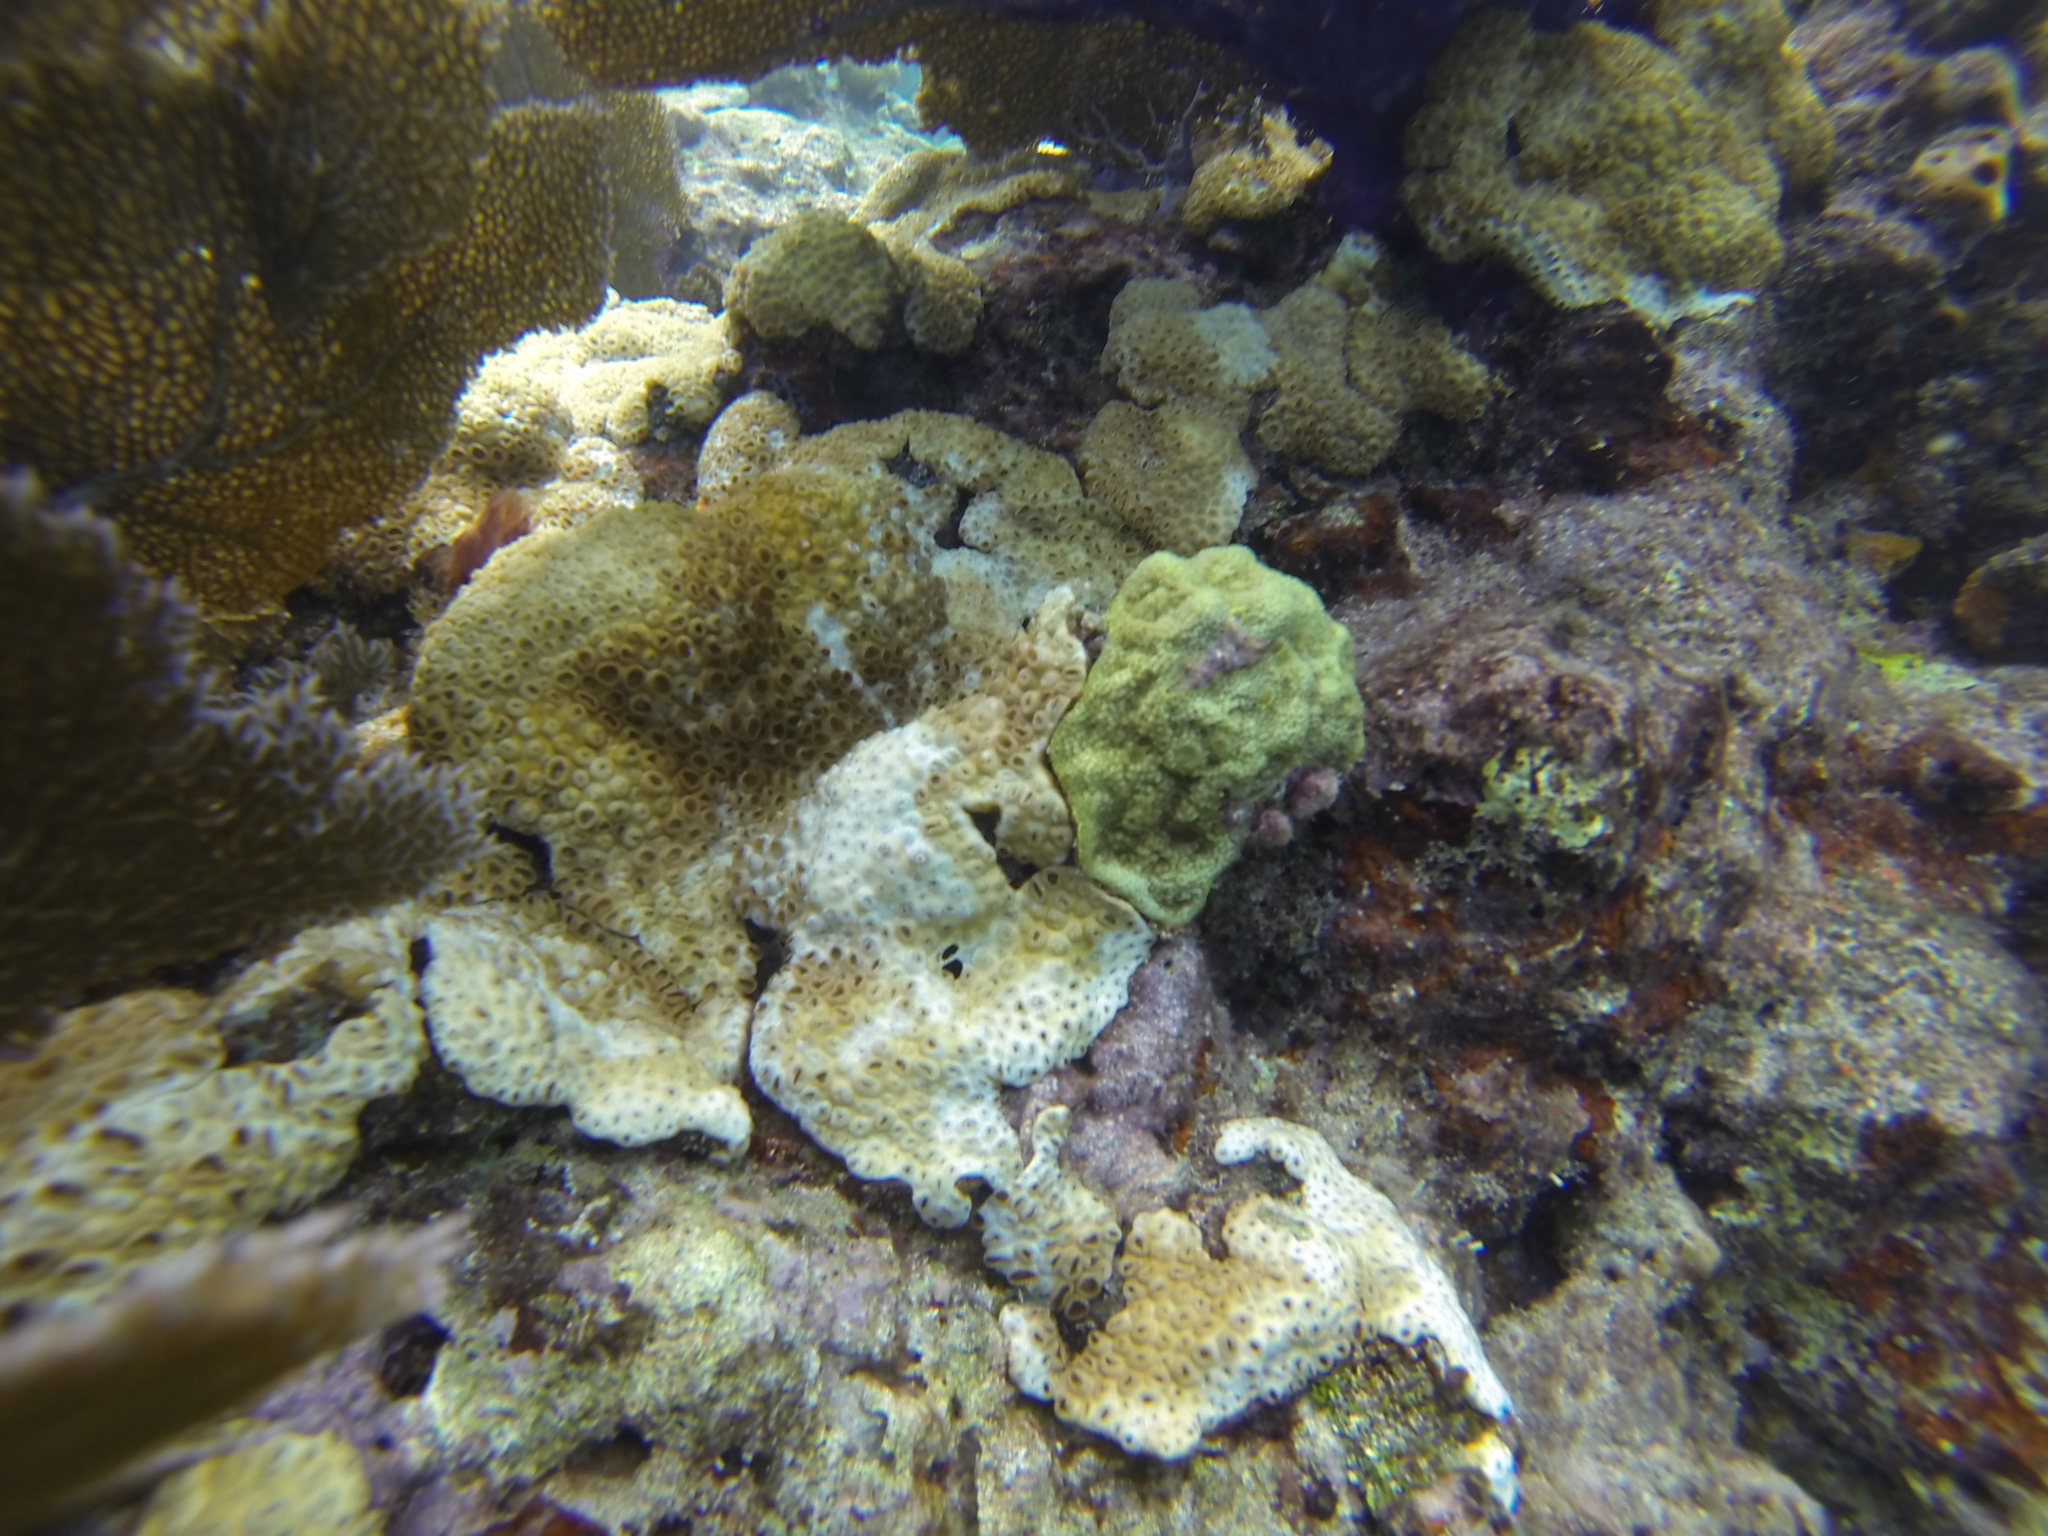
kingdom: Animalia
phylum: Cnidaria
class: Anthozoa
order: Scleractinia
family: Poritidae
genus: Porites
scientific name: Porites astreoides
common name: Mustard hill coral
